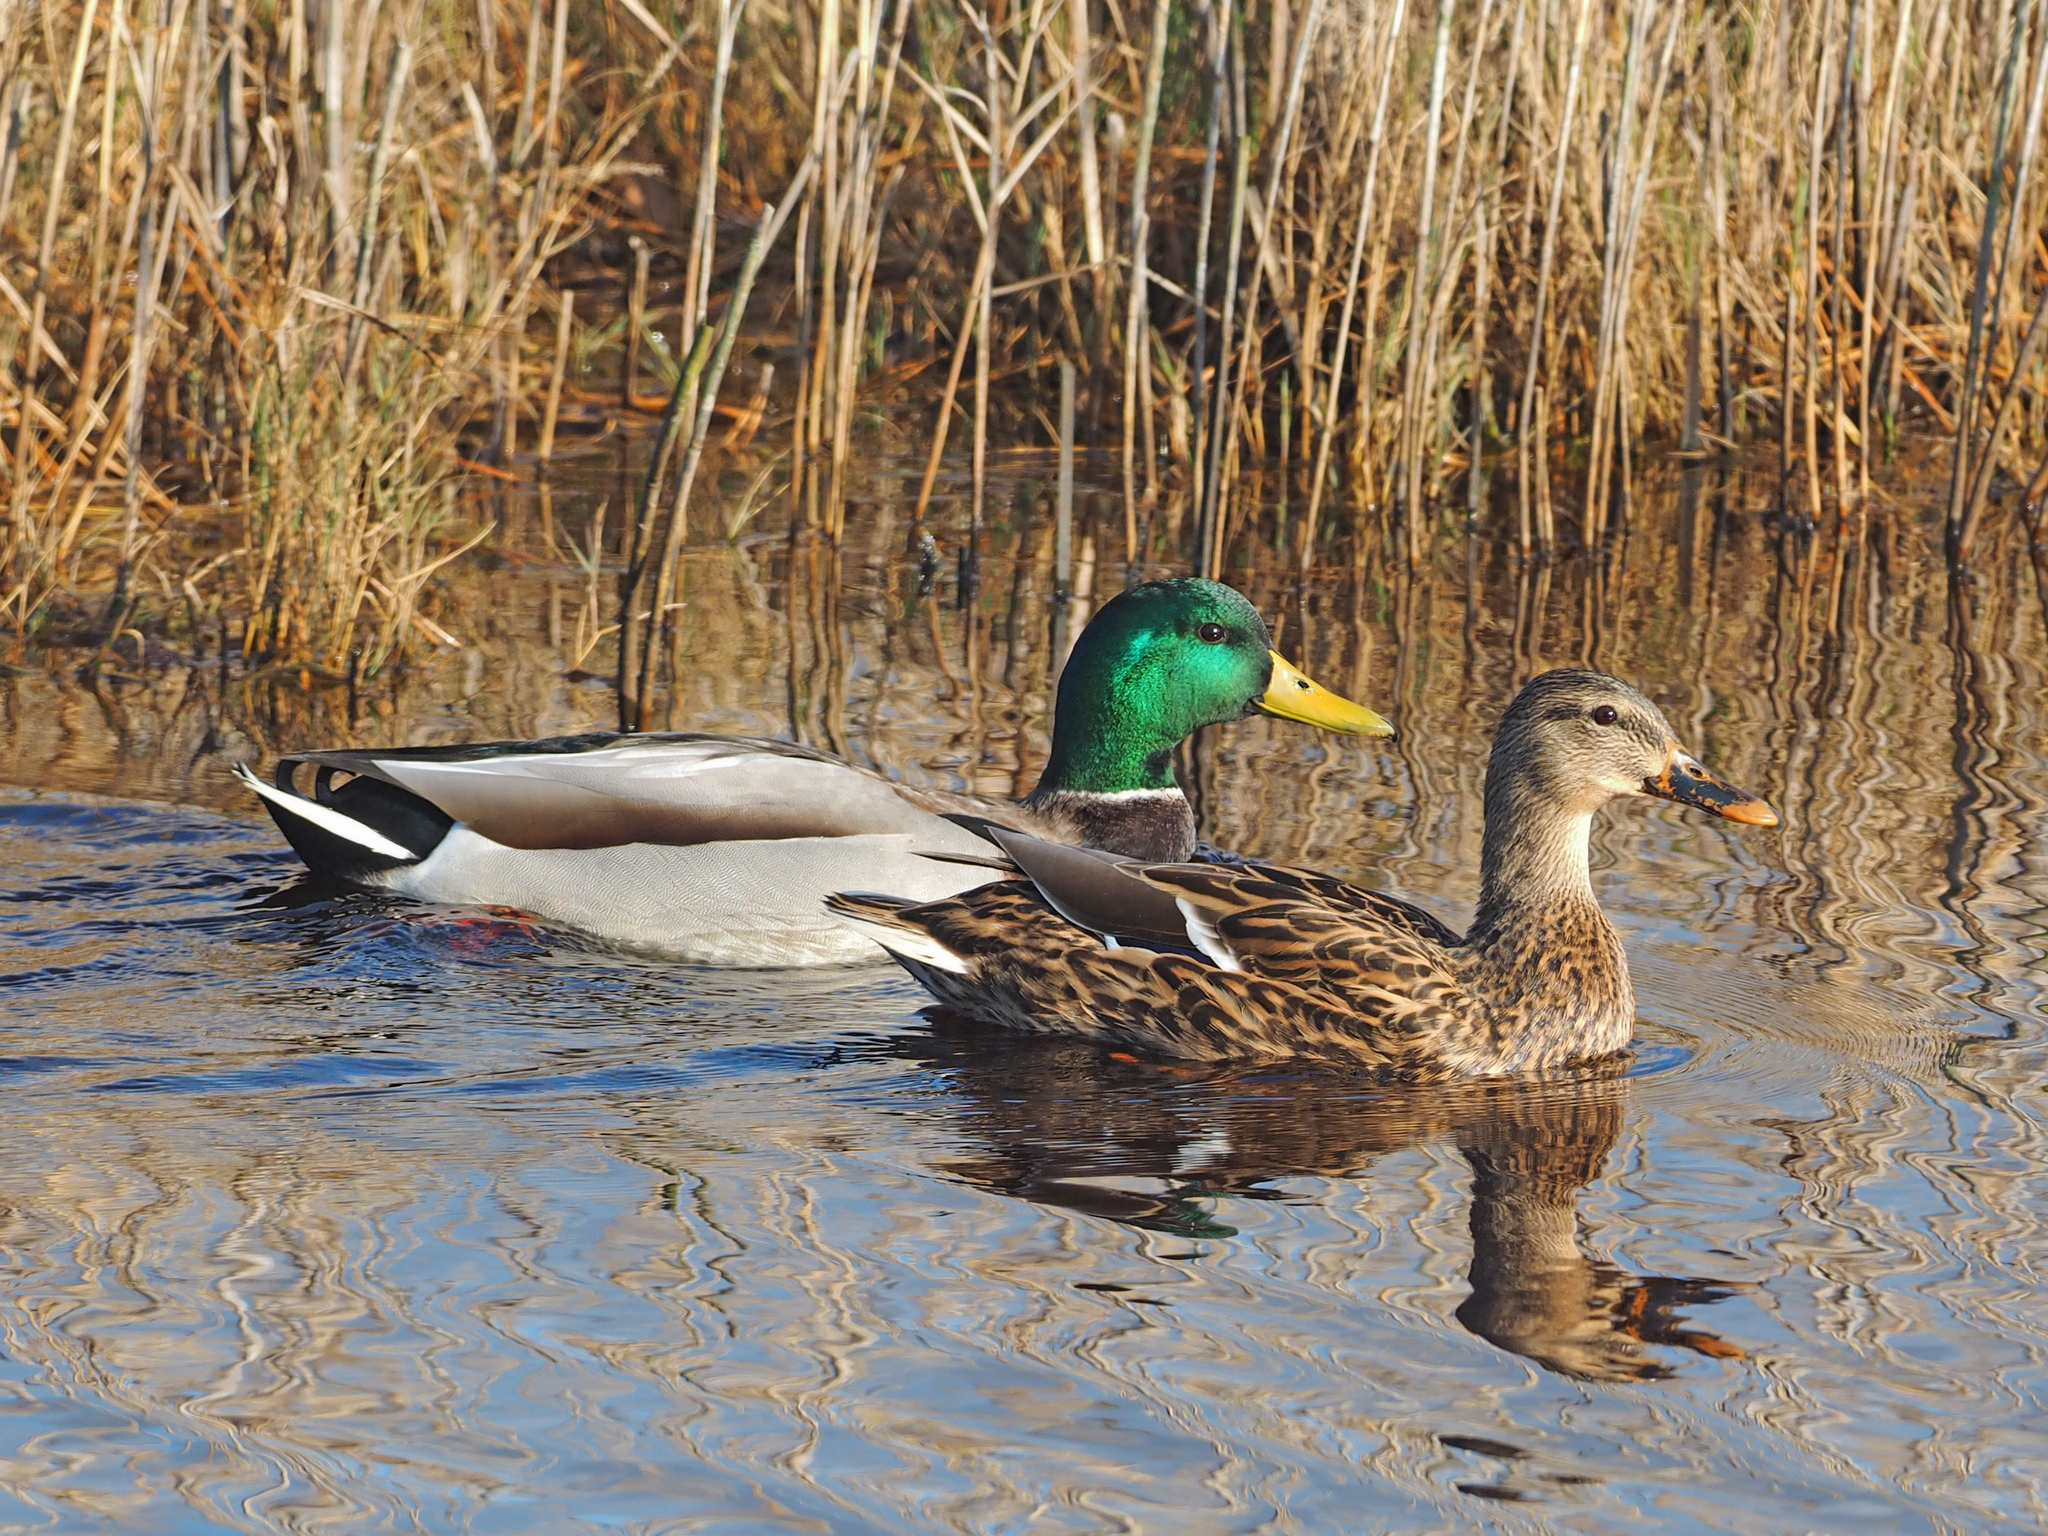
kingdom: Animalia
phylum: Chordata
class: Aves
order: Anseriformes
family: Anatidae
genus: Anas
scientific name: Anas platyrhynchos
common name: Mallard
